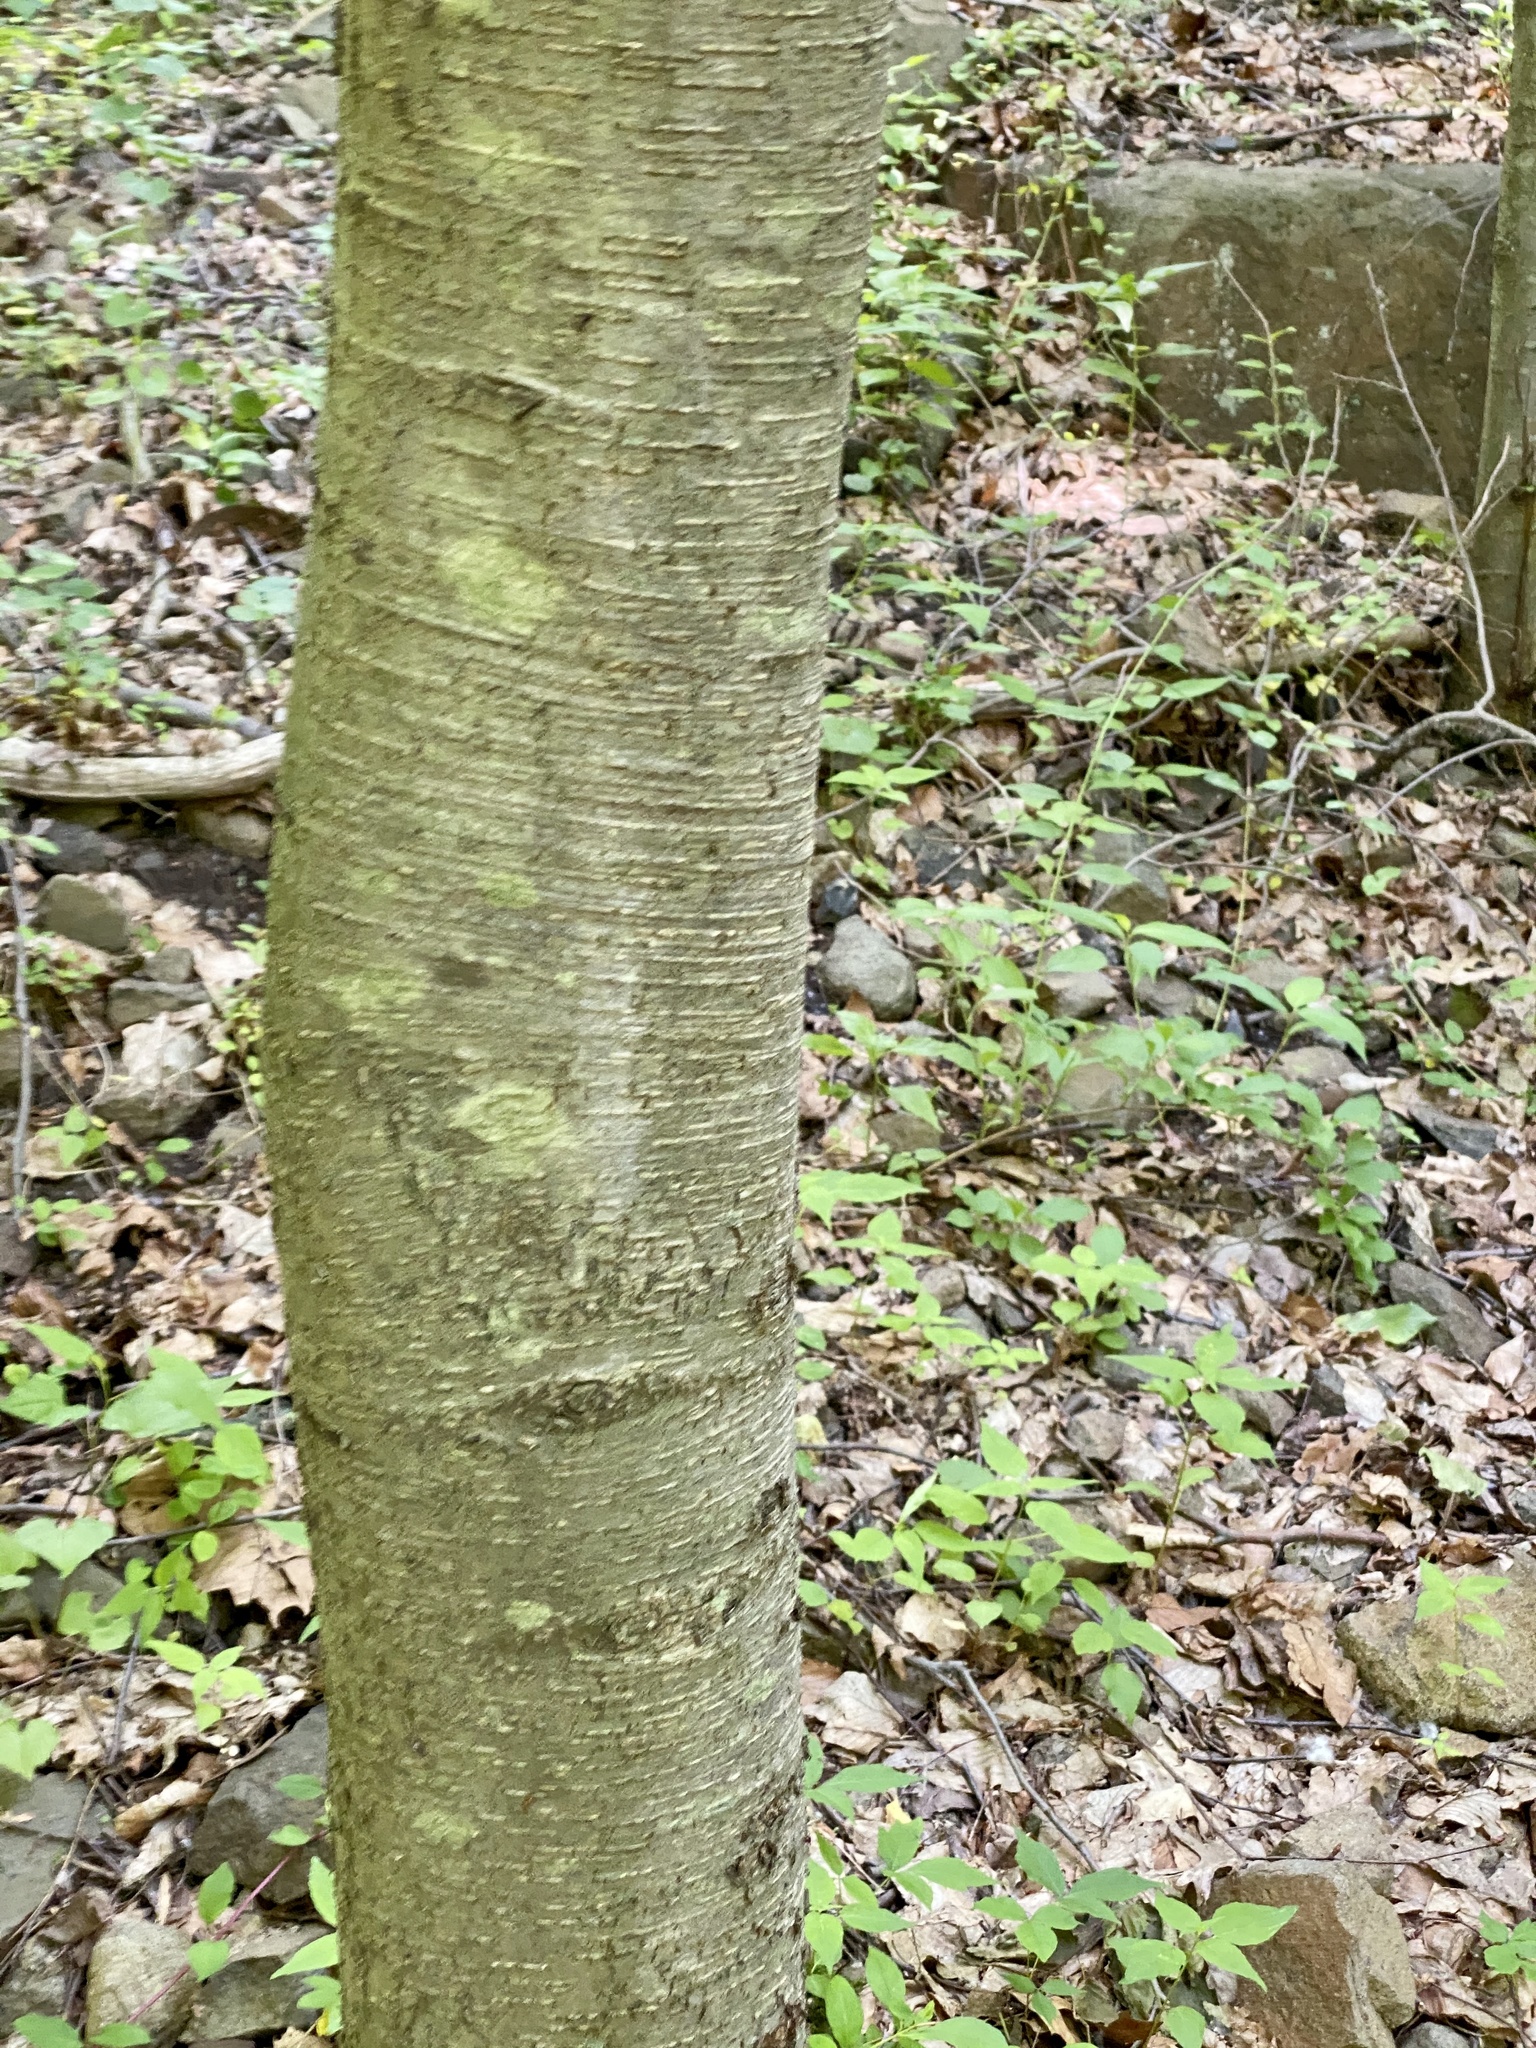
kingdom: Plantae
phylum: Tracheophyta
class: Magnoliopsida
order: Fagales
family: Betulaceae
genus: Betula
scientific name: Betula lenta
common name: Black birch
